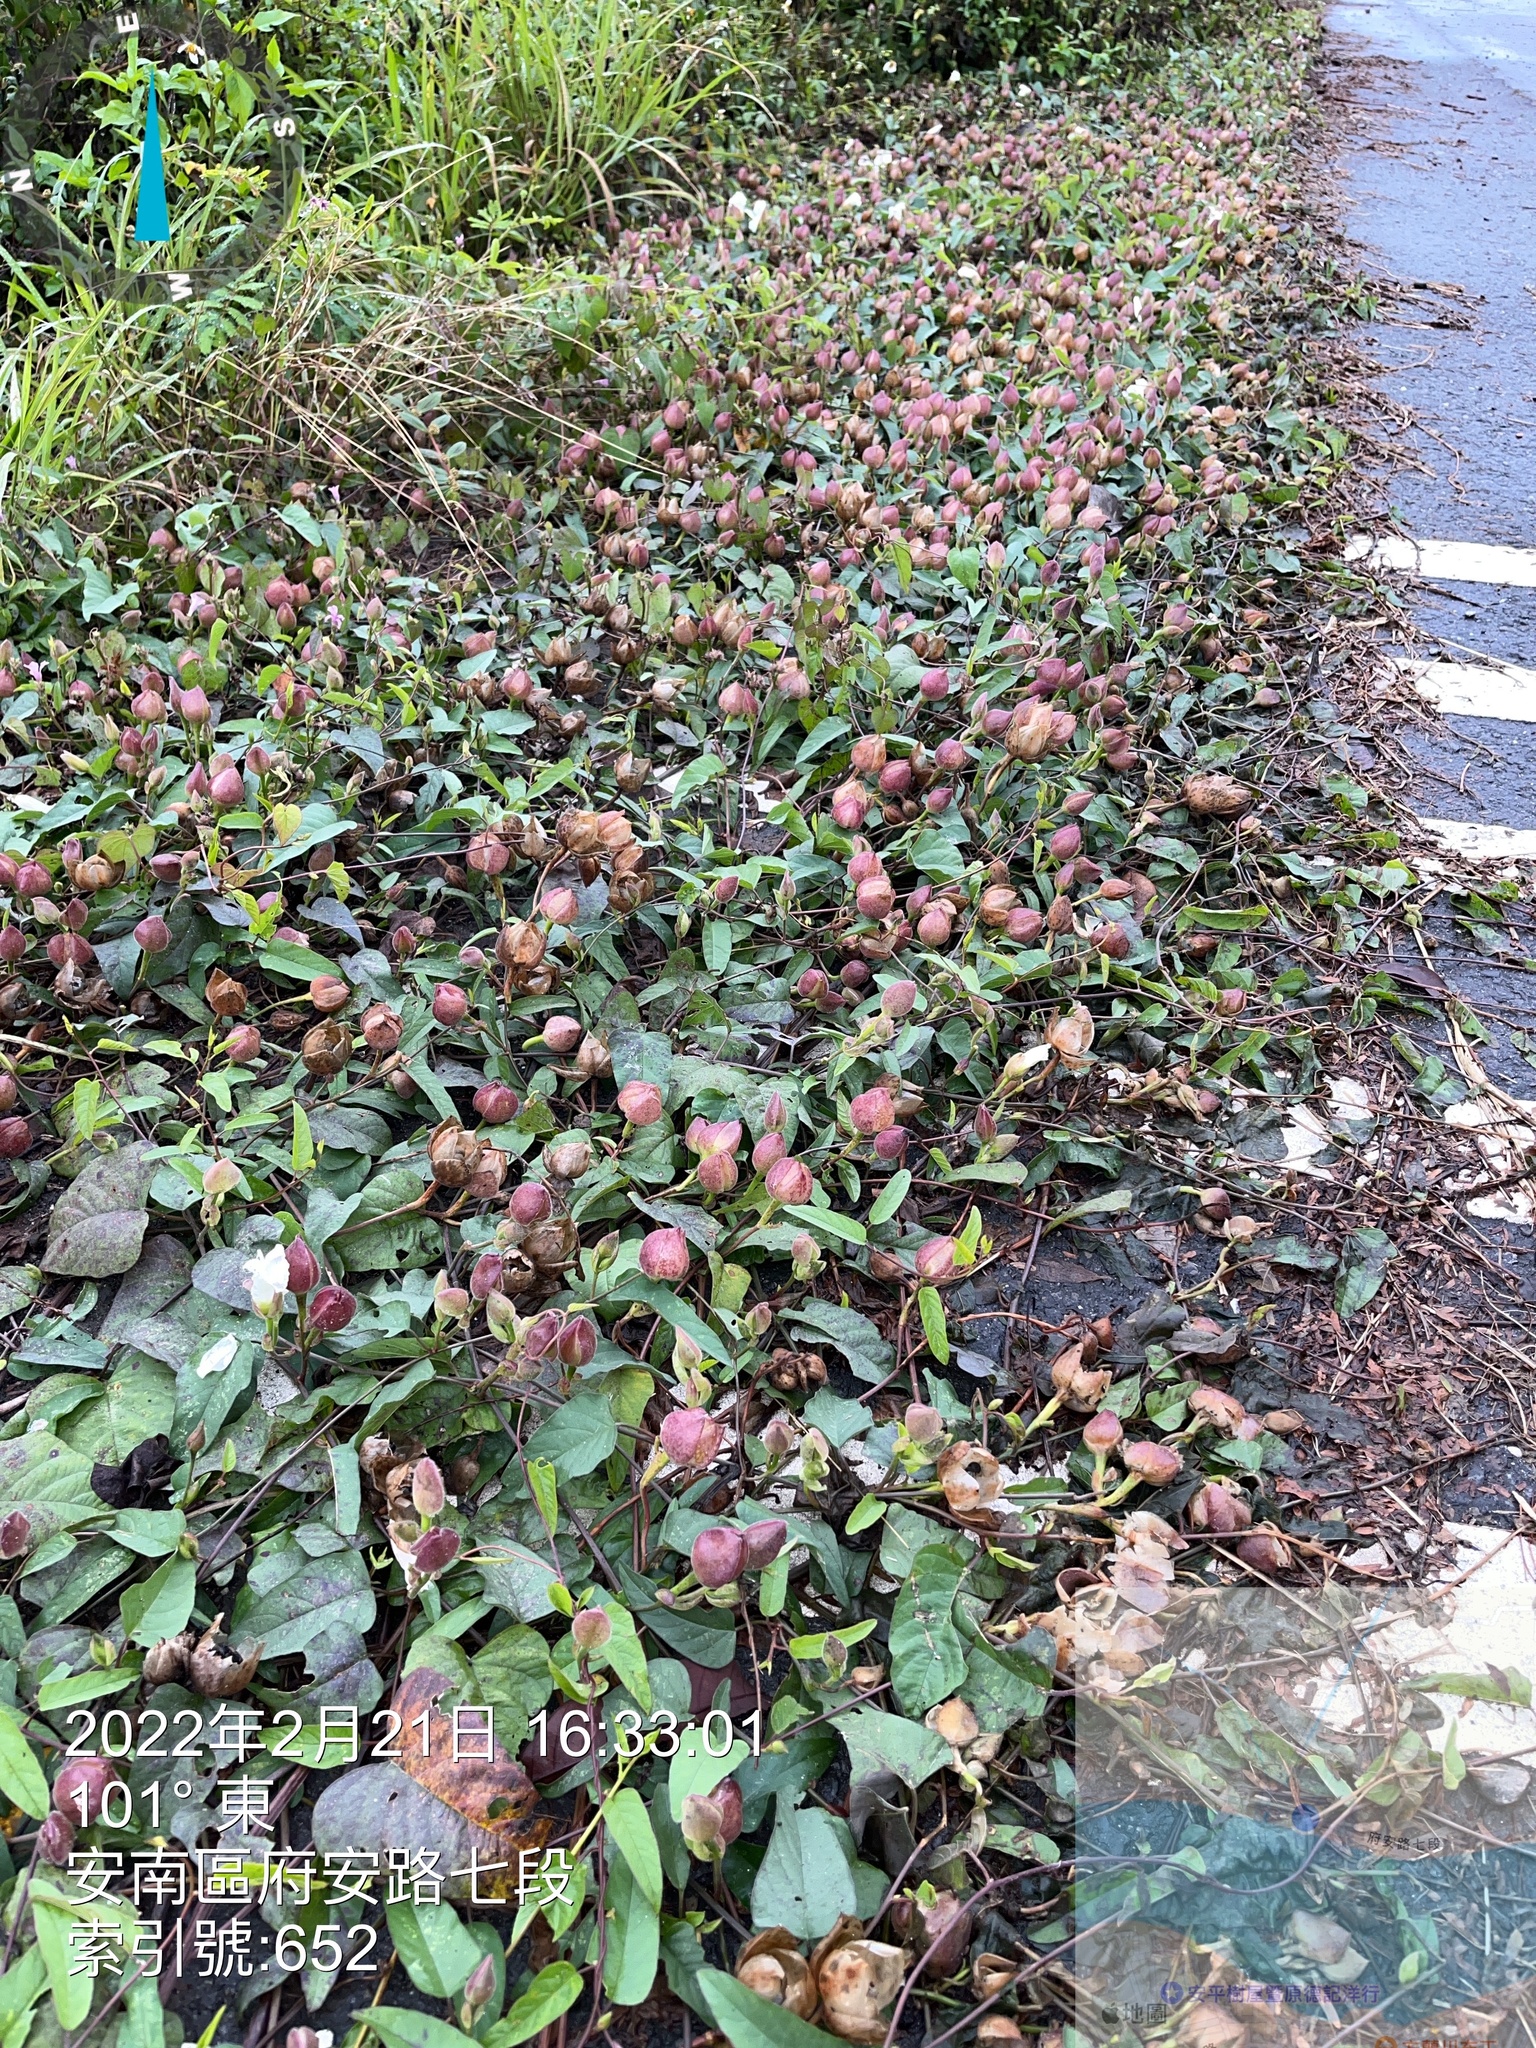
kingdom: Plantae
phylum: Tracheophyta
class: Magnoliopsida
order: Solanales
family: Convolvulaceae
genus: Operculina
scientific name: Operculina turpethum
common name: Transparent wood-rose
